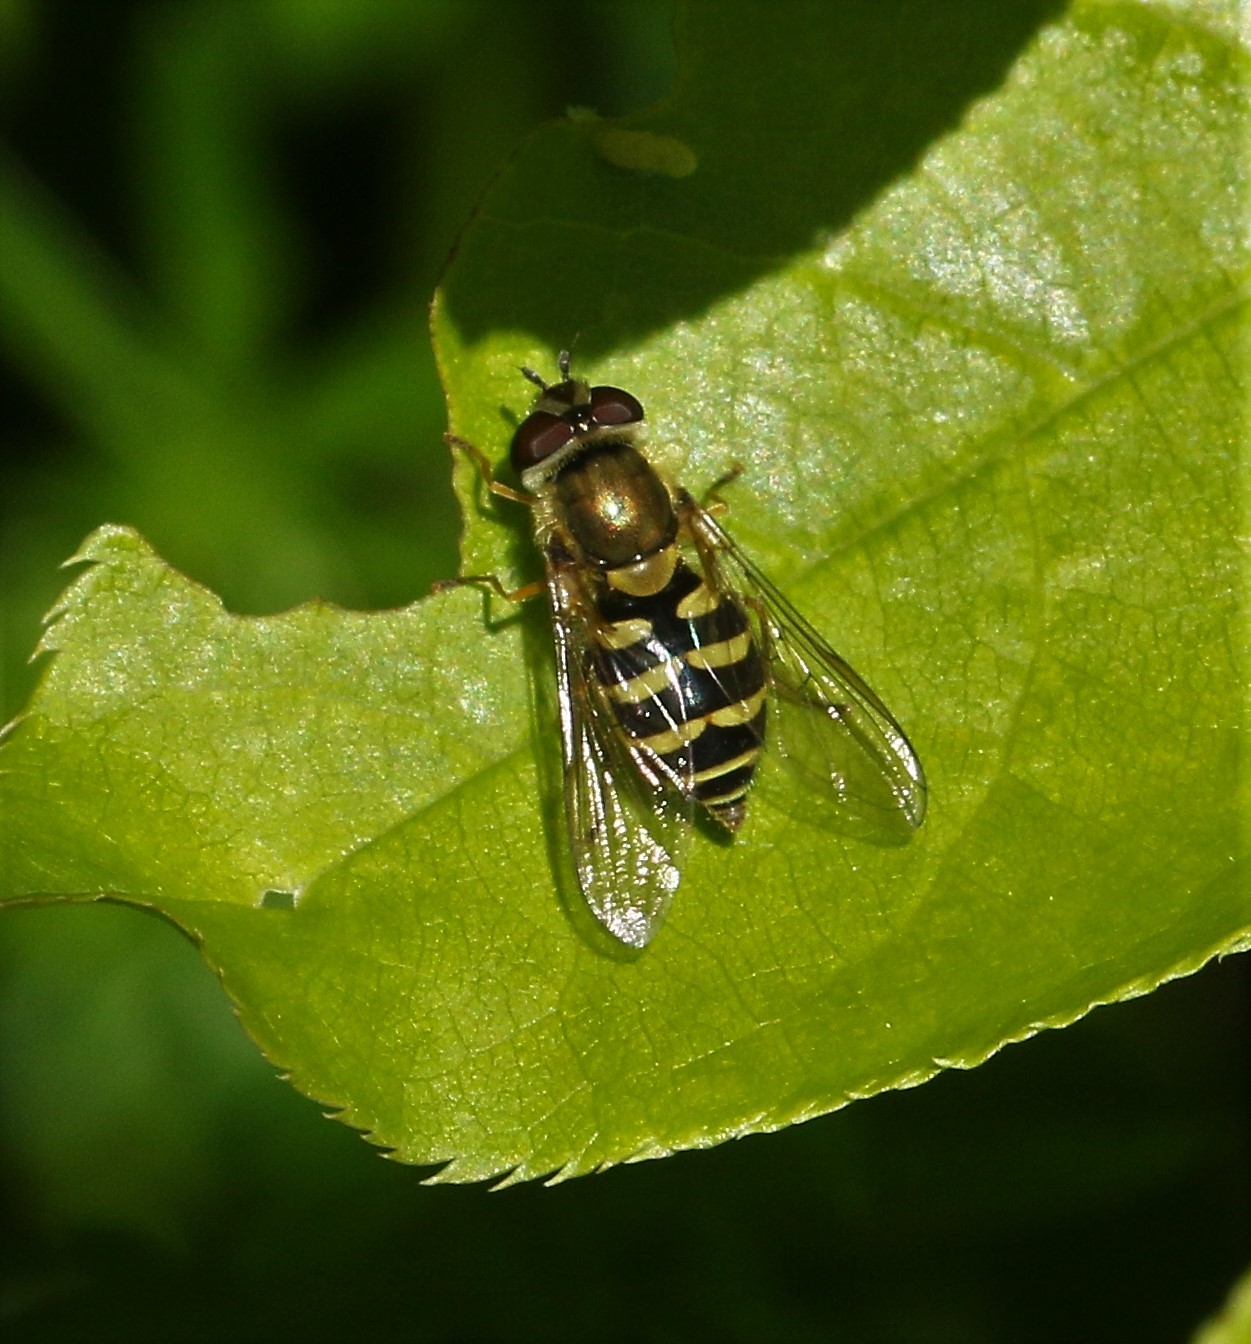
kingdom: Animalia
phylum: Arthropoda
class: Insecta
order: Diptera
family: Syrphidae
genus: Syrphus
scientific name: Syrphus
